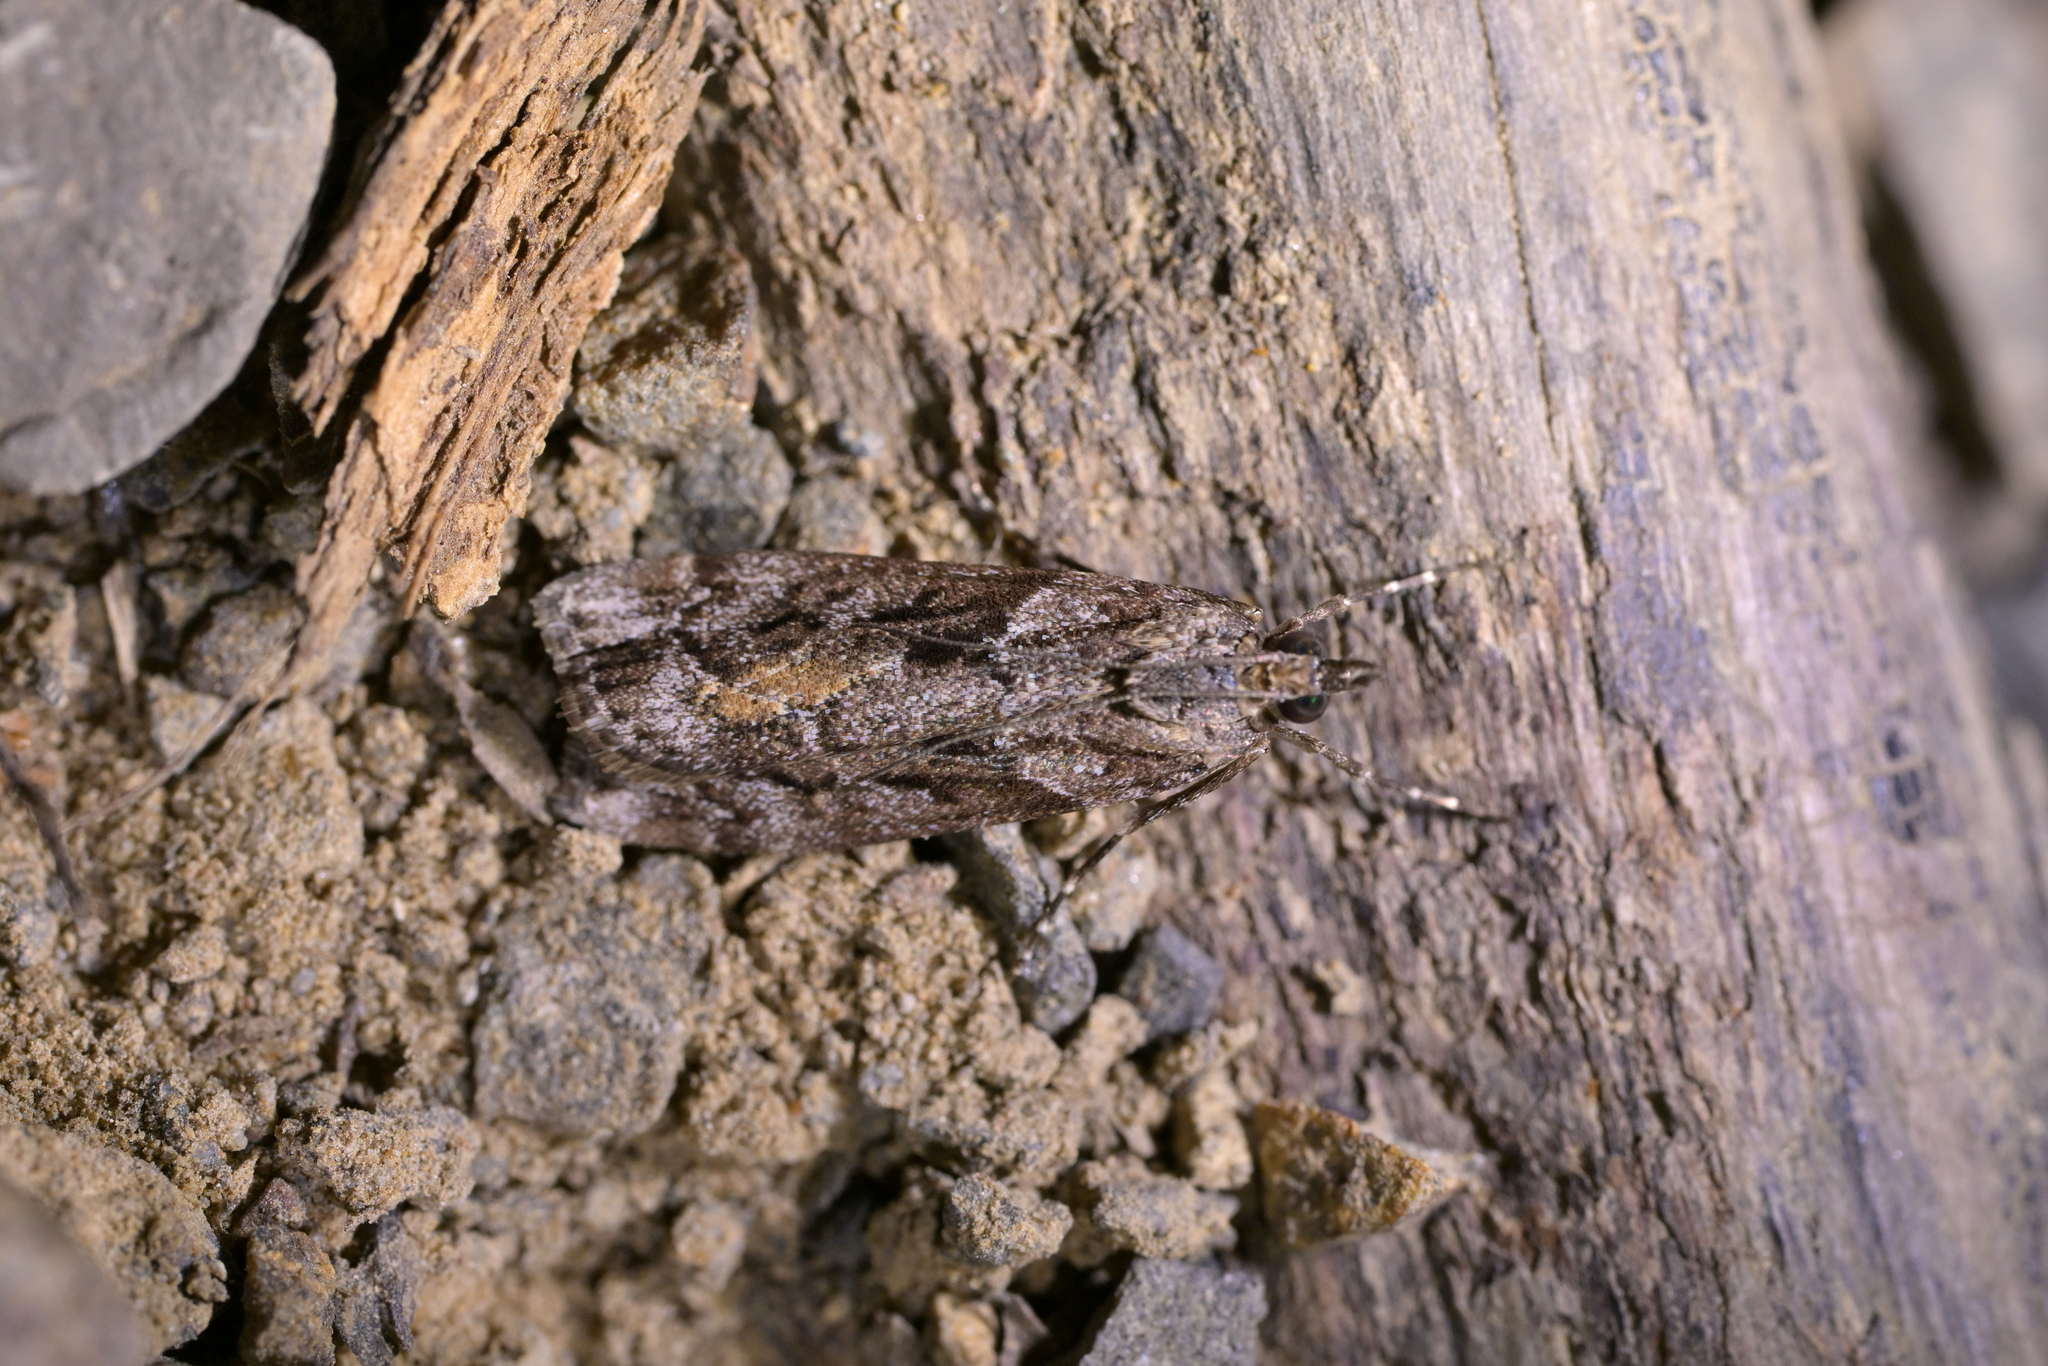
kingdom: Animalia
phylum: Arthropoda
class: Insecta
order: Lepidoptera
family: Crambidae
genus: Eudonia
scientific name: Eudonia submarginalis
